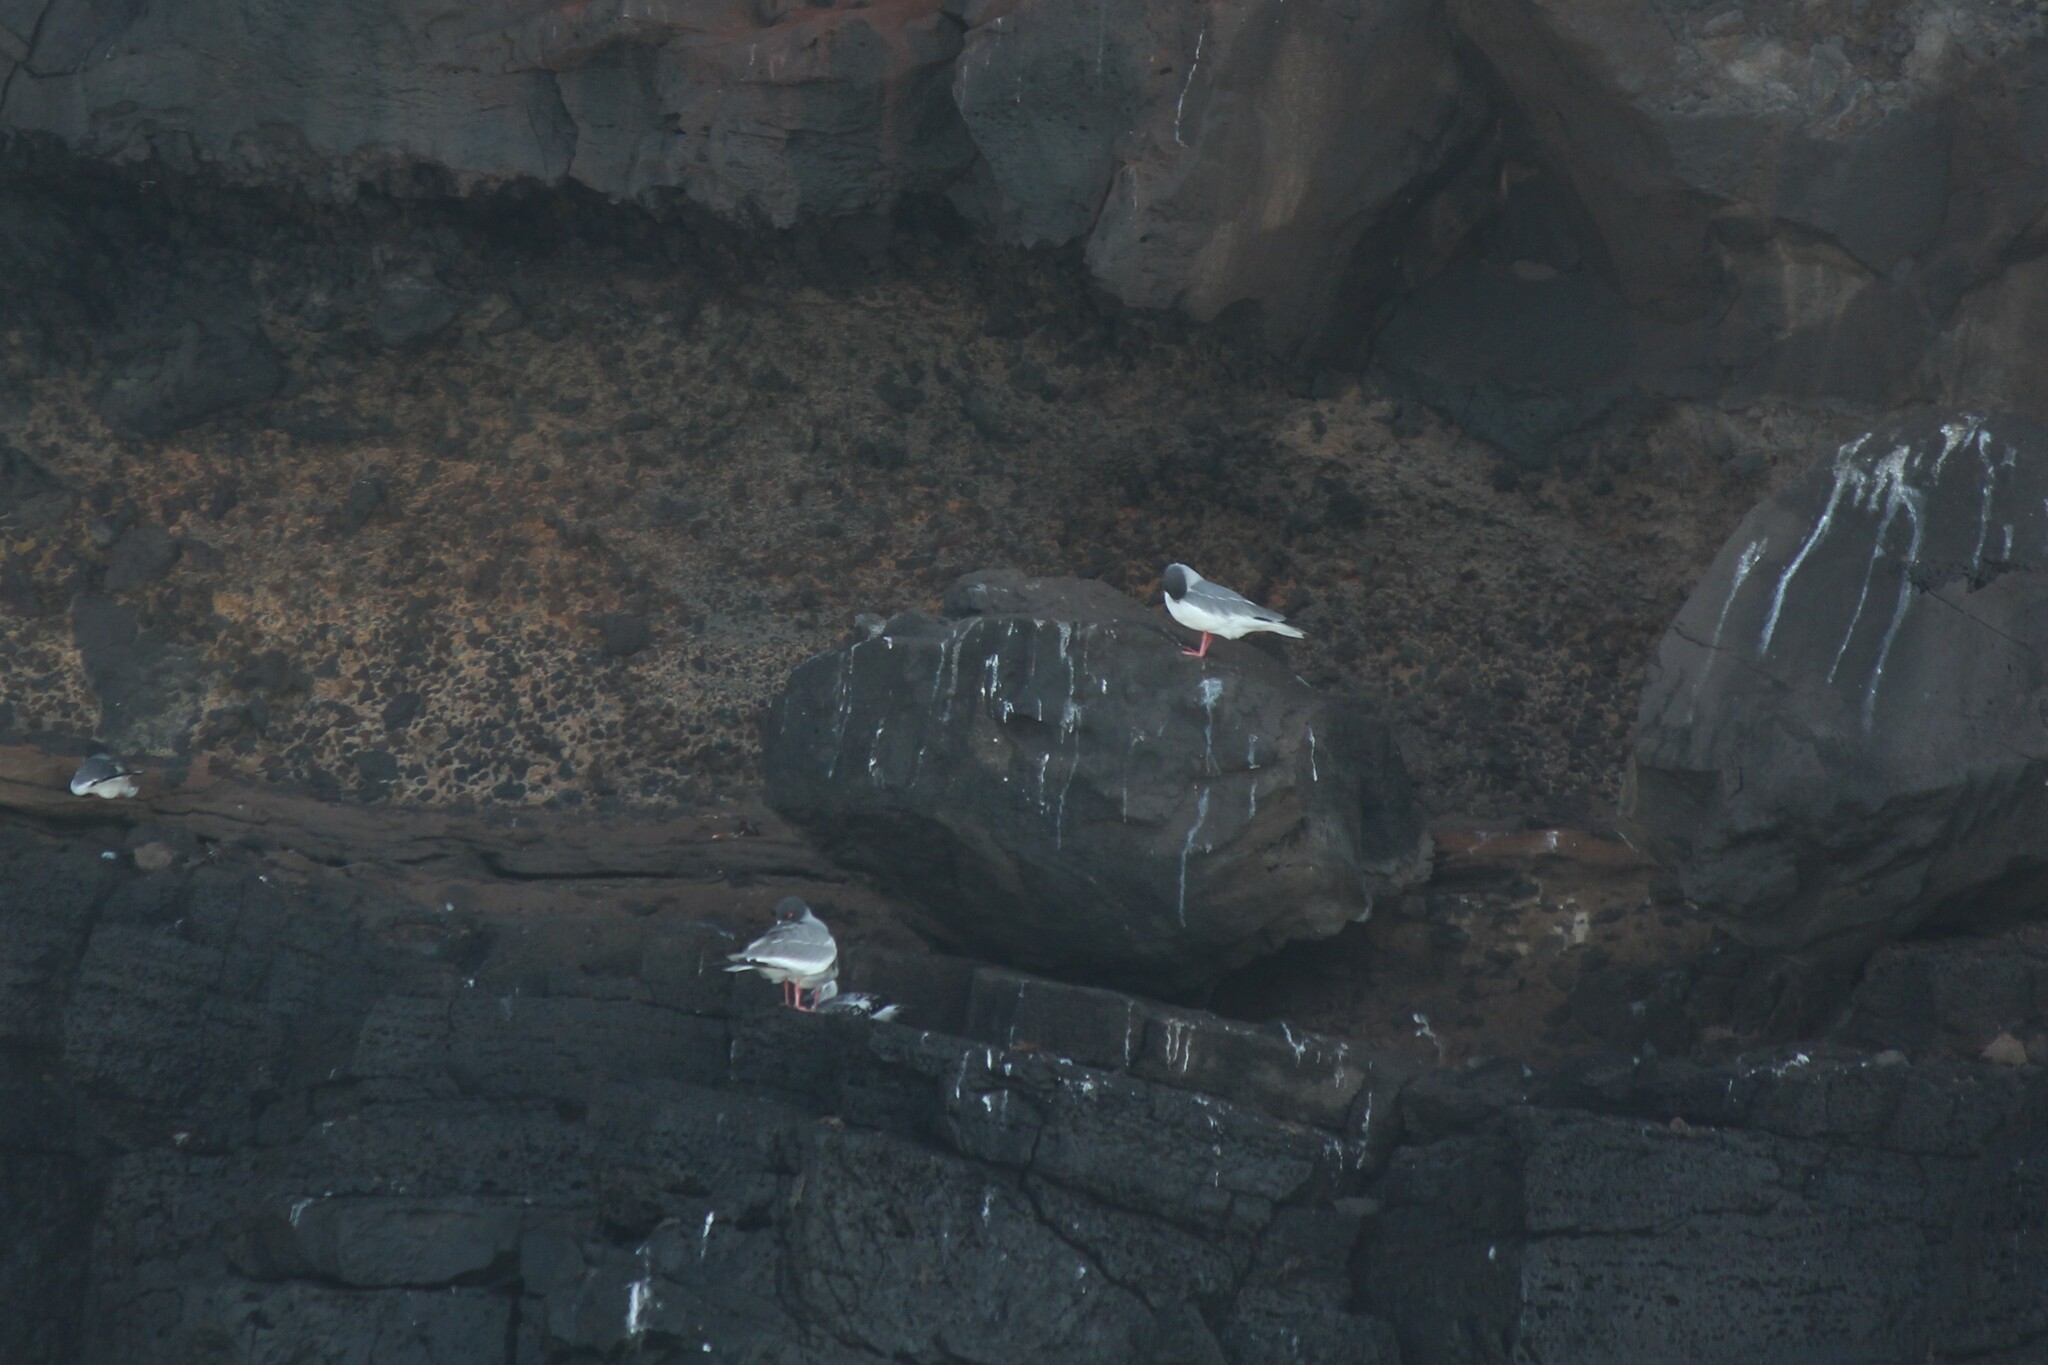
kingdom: Animalia
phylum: Chordata
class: Aves
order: Charadriiformes
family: Laridae
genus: Creagrus
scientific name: Creagrus furcatus
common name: Swallow-tailed gull
